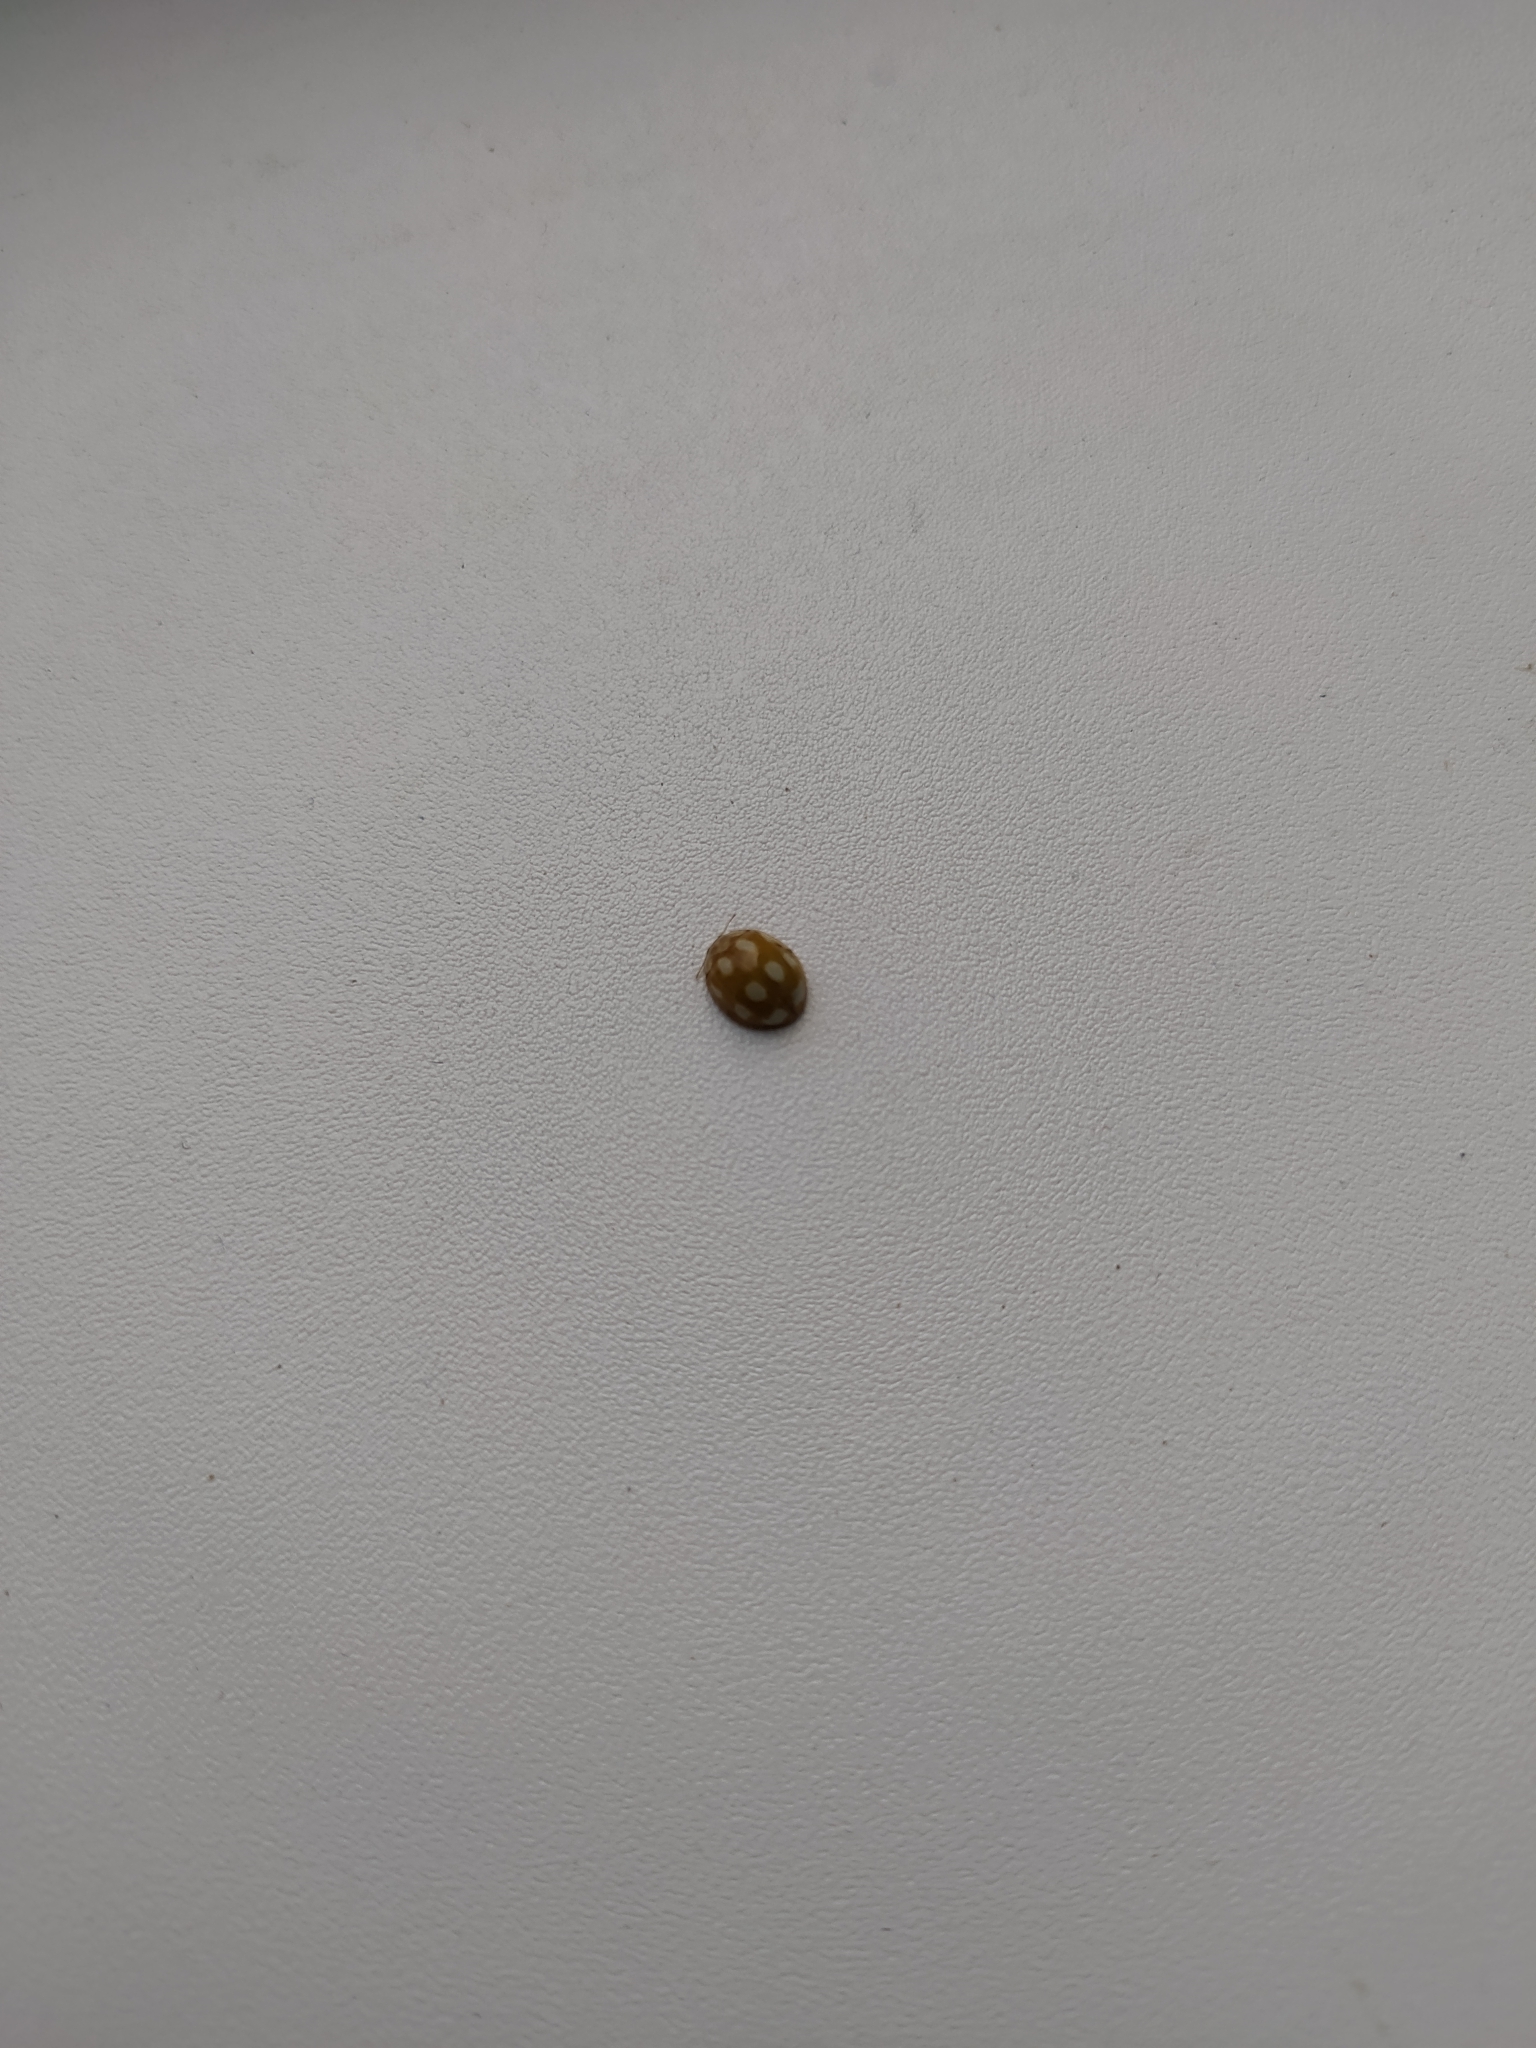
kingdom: Animalia
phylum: Arthropoda
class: Insecta
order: Coleoptera
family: Coccinellidae
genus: Calvia
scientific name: Calvia decemguttata
